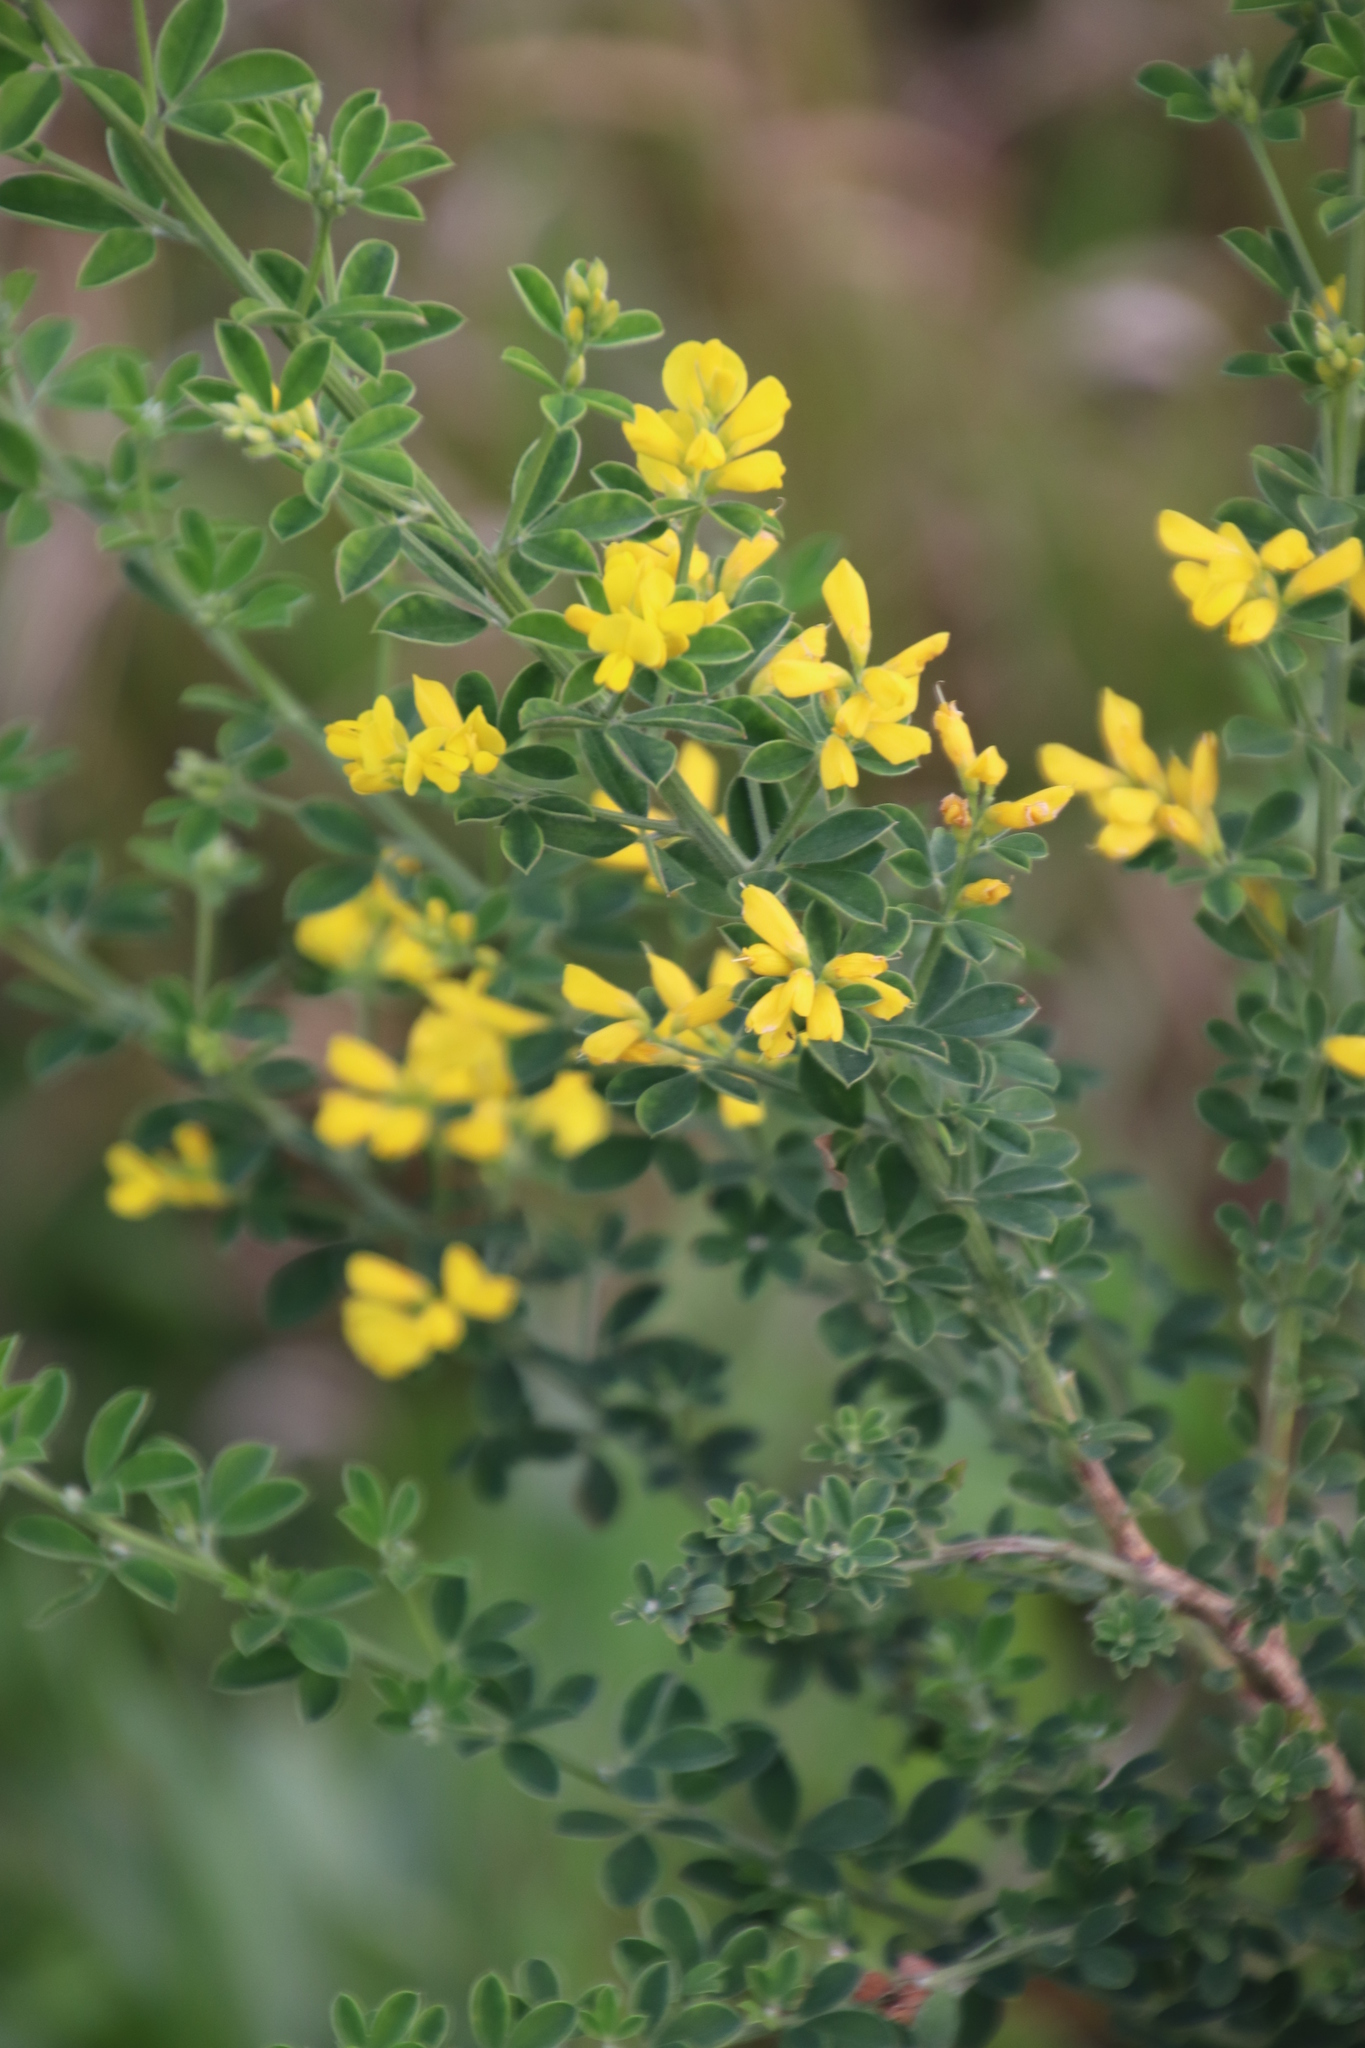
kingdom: Plantae
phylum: Tracheophyta
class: Magnoliopsida
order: Fabales
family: Fabaceae
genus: Genista
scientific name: Genista monspessulana
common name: Montpellier broom
